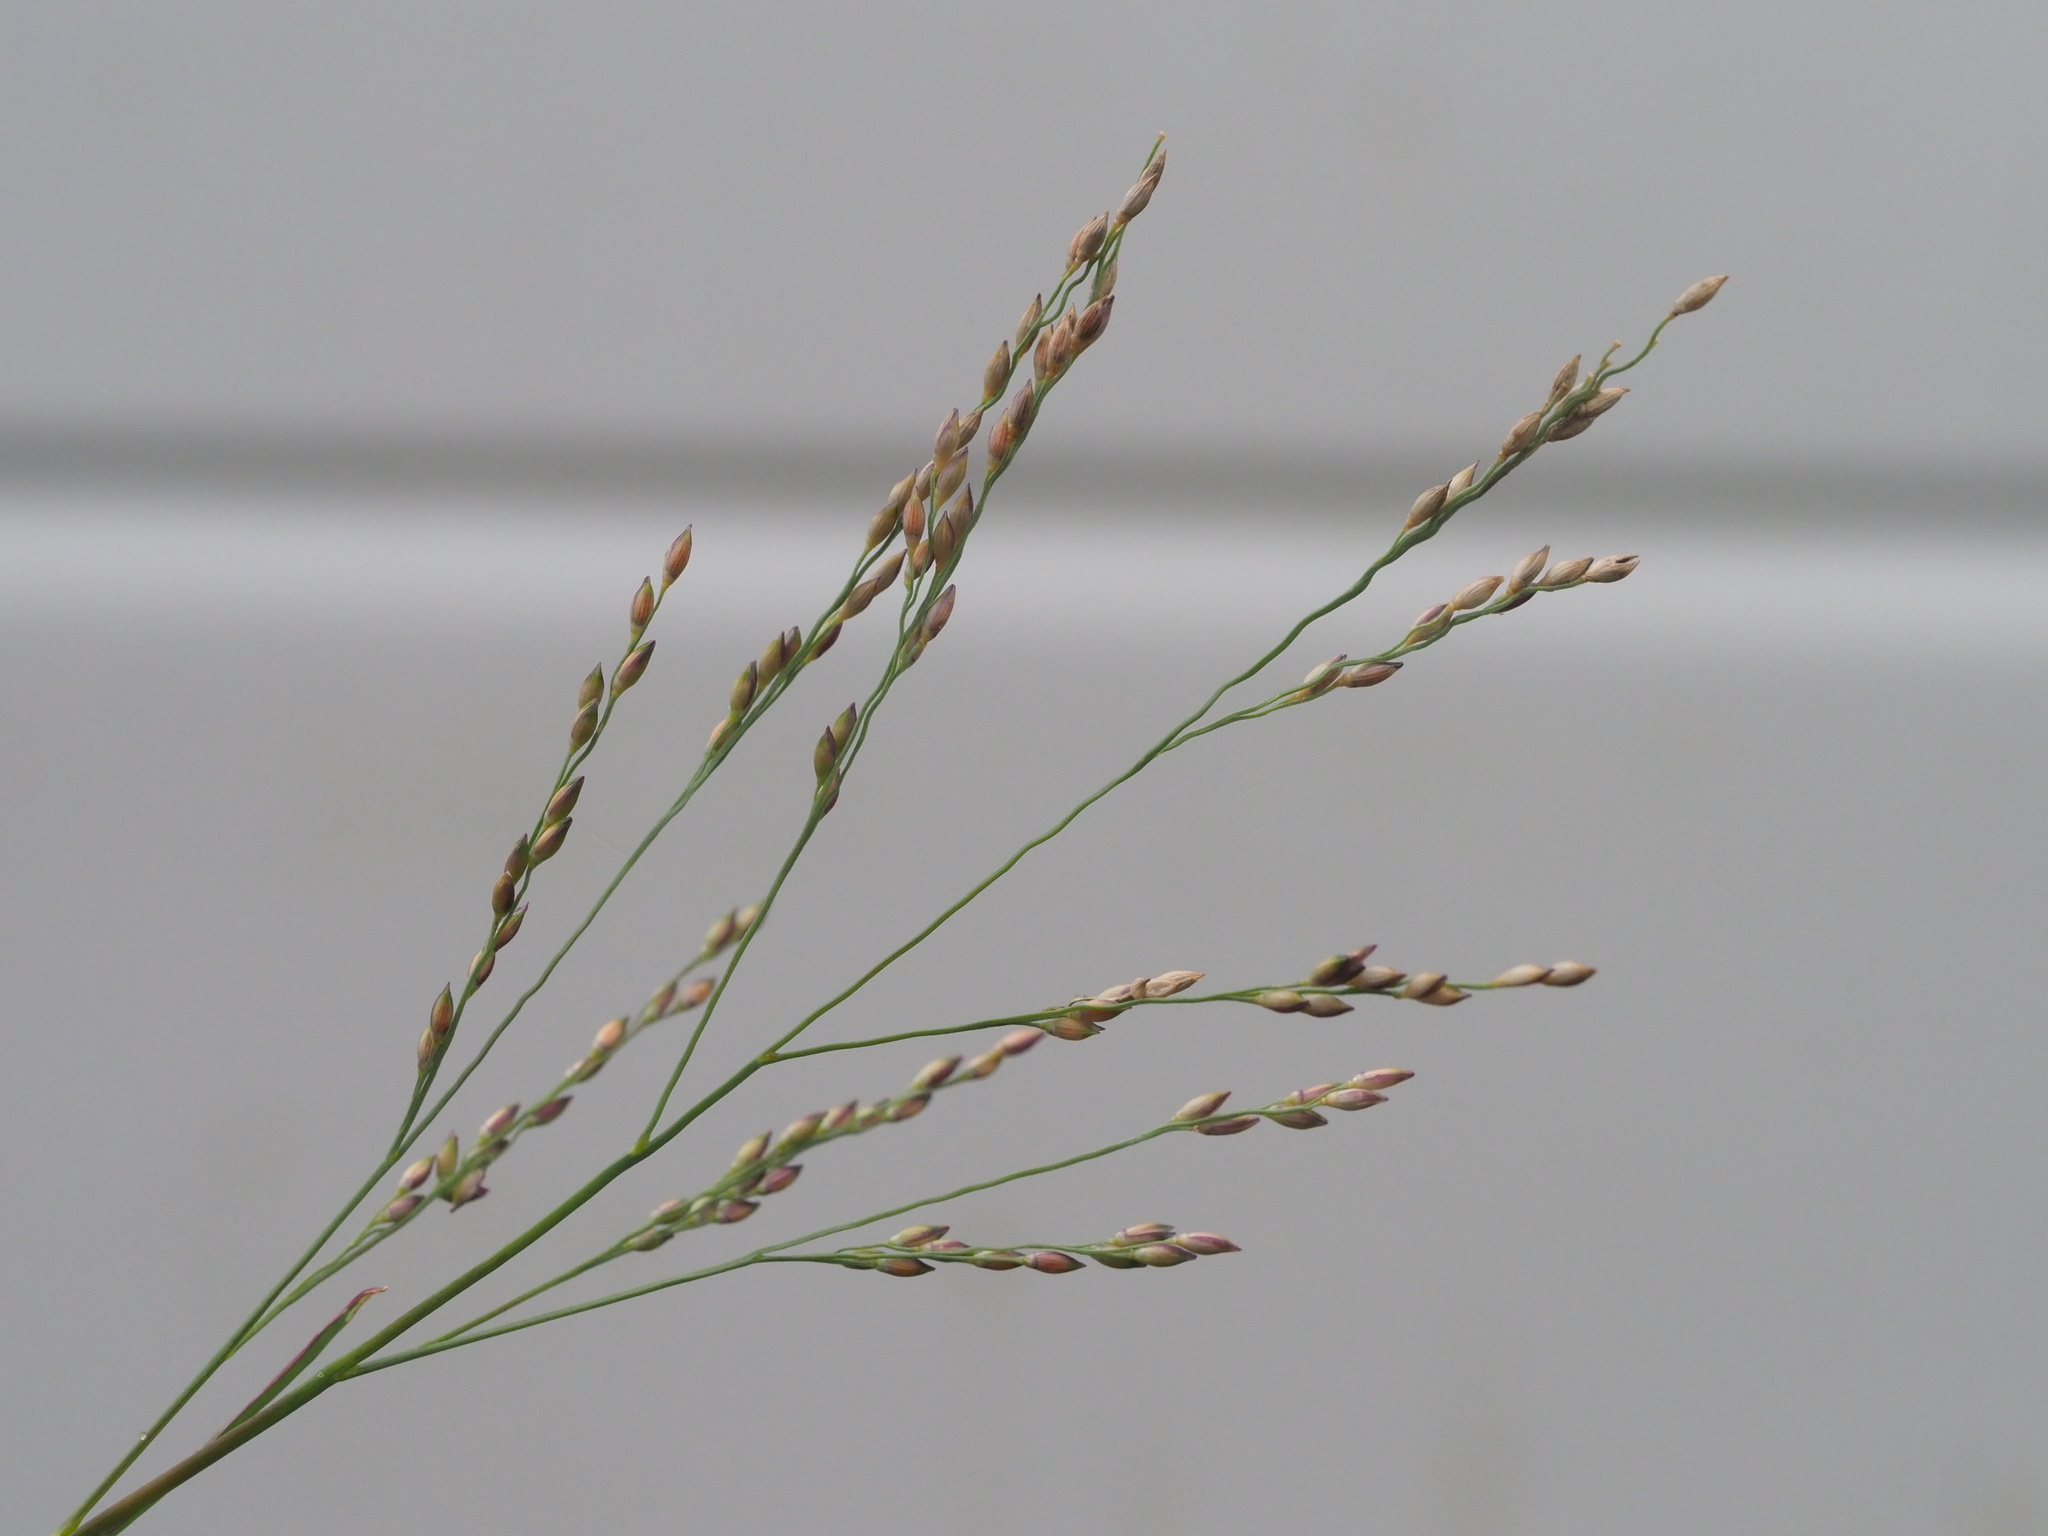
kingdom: Plantae
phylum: Tracheophyta
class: Liliopsida
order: Poales
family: Poaceae
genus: Panicum
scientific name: Panicum repens
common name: Torpedo grass
